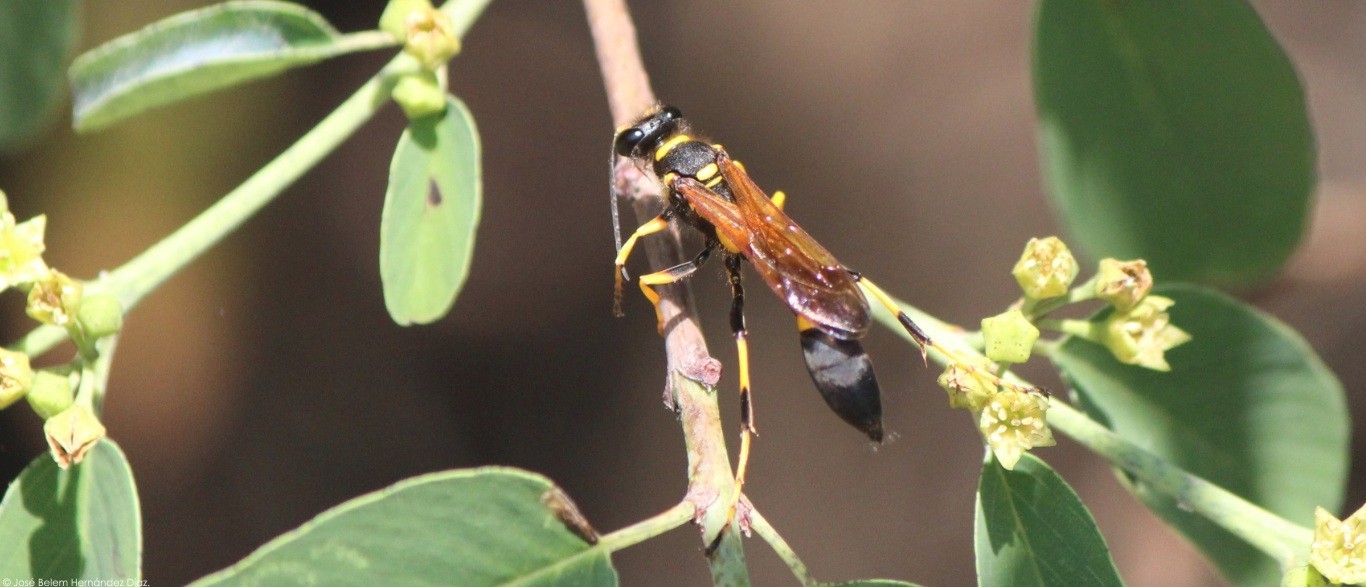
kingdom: Animalia
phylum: Arthropoda
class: Insecta
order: Hymenoptera
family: Sphecidae
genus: Sceliphron
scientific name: Sceliphron caementarium
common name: Mud dauber
